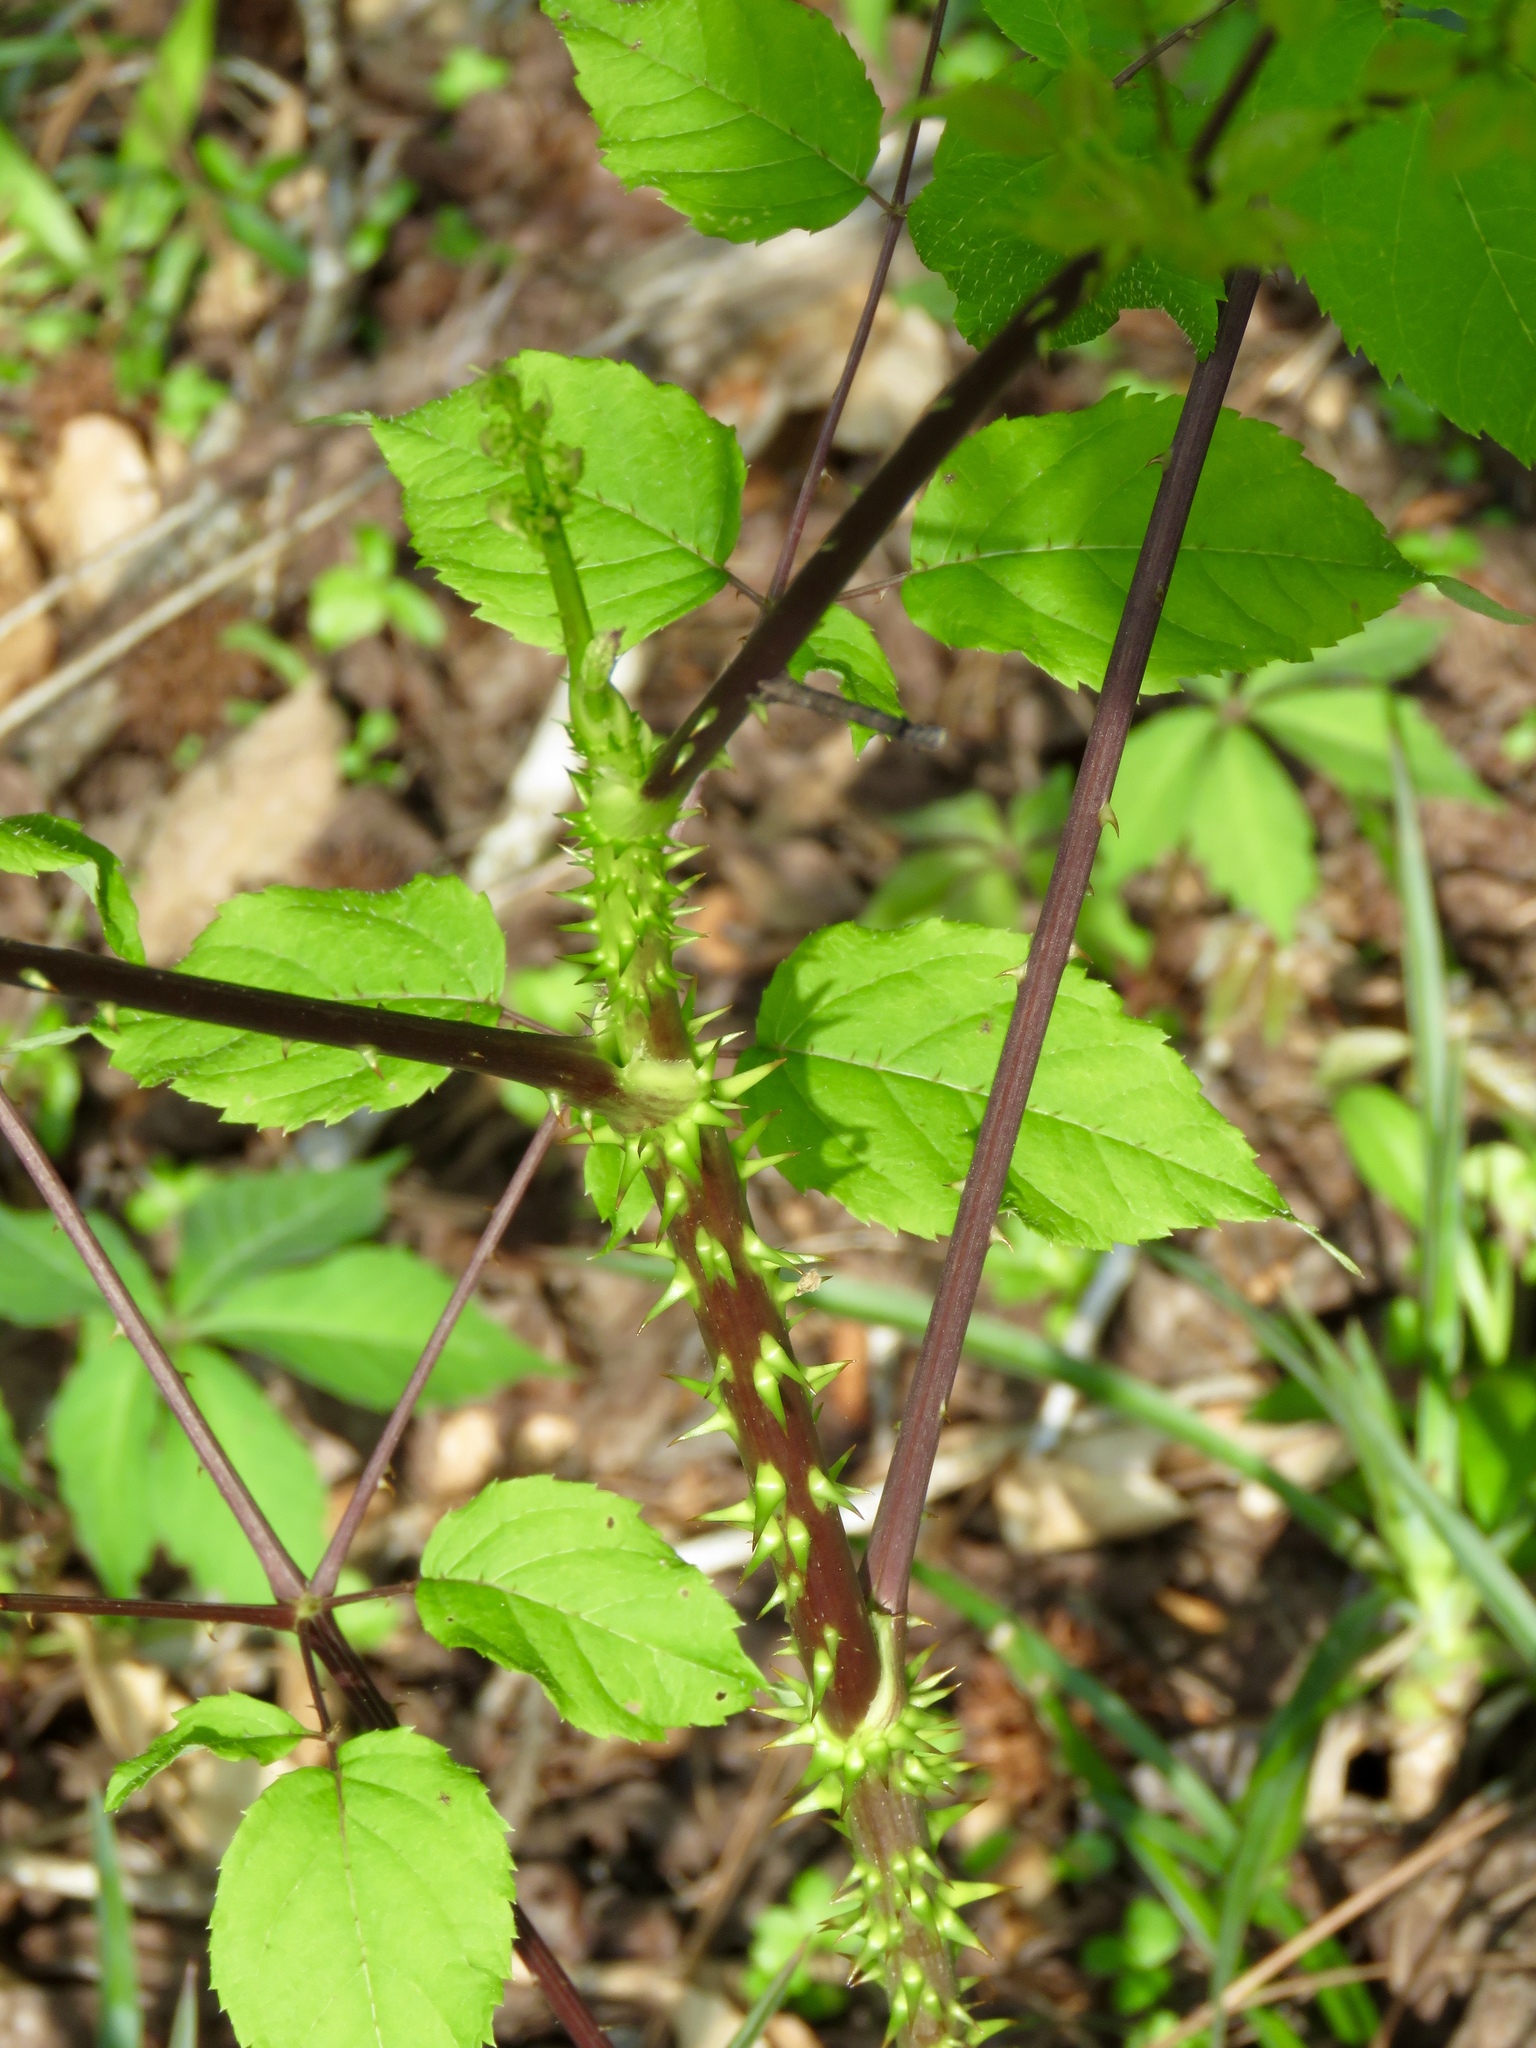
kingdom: Plantae
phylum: Tracheophyta
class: Magnoliopsida
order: Apiales
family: Araliaceae
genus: Aralia
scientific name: Aralia spinosa
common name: Hercules'-club
